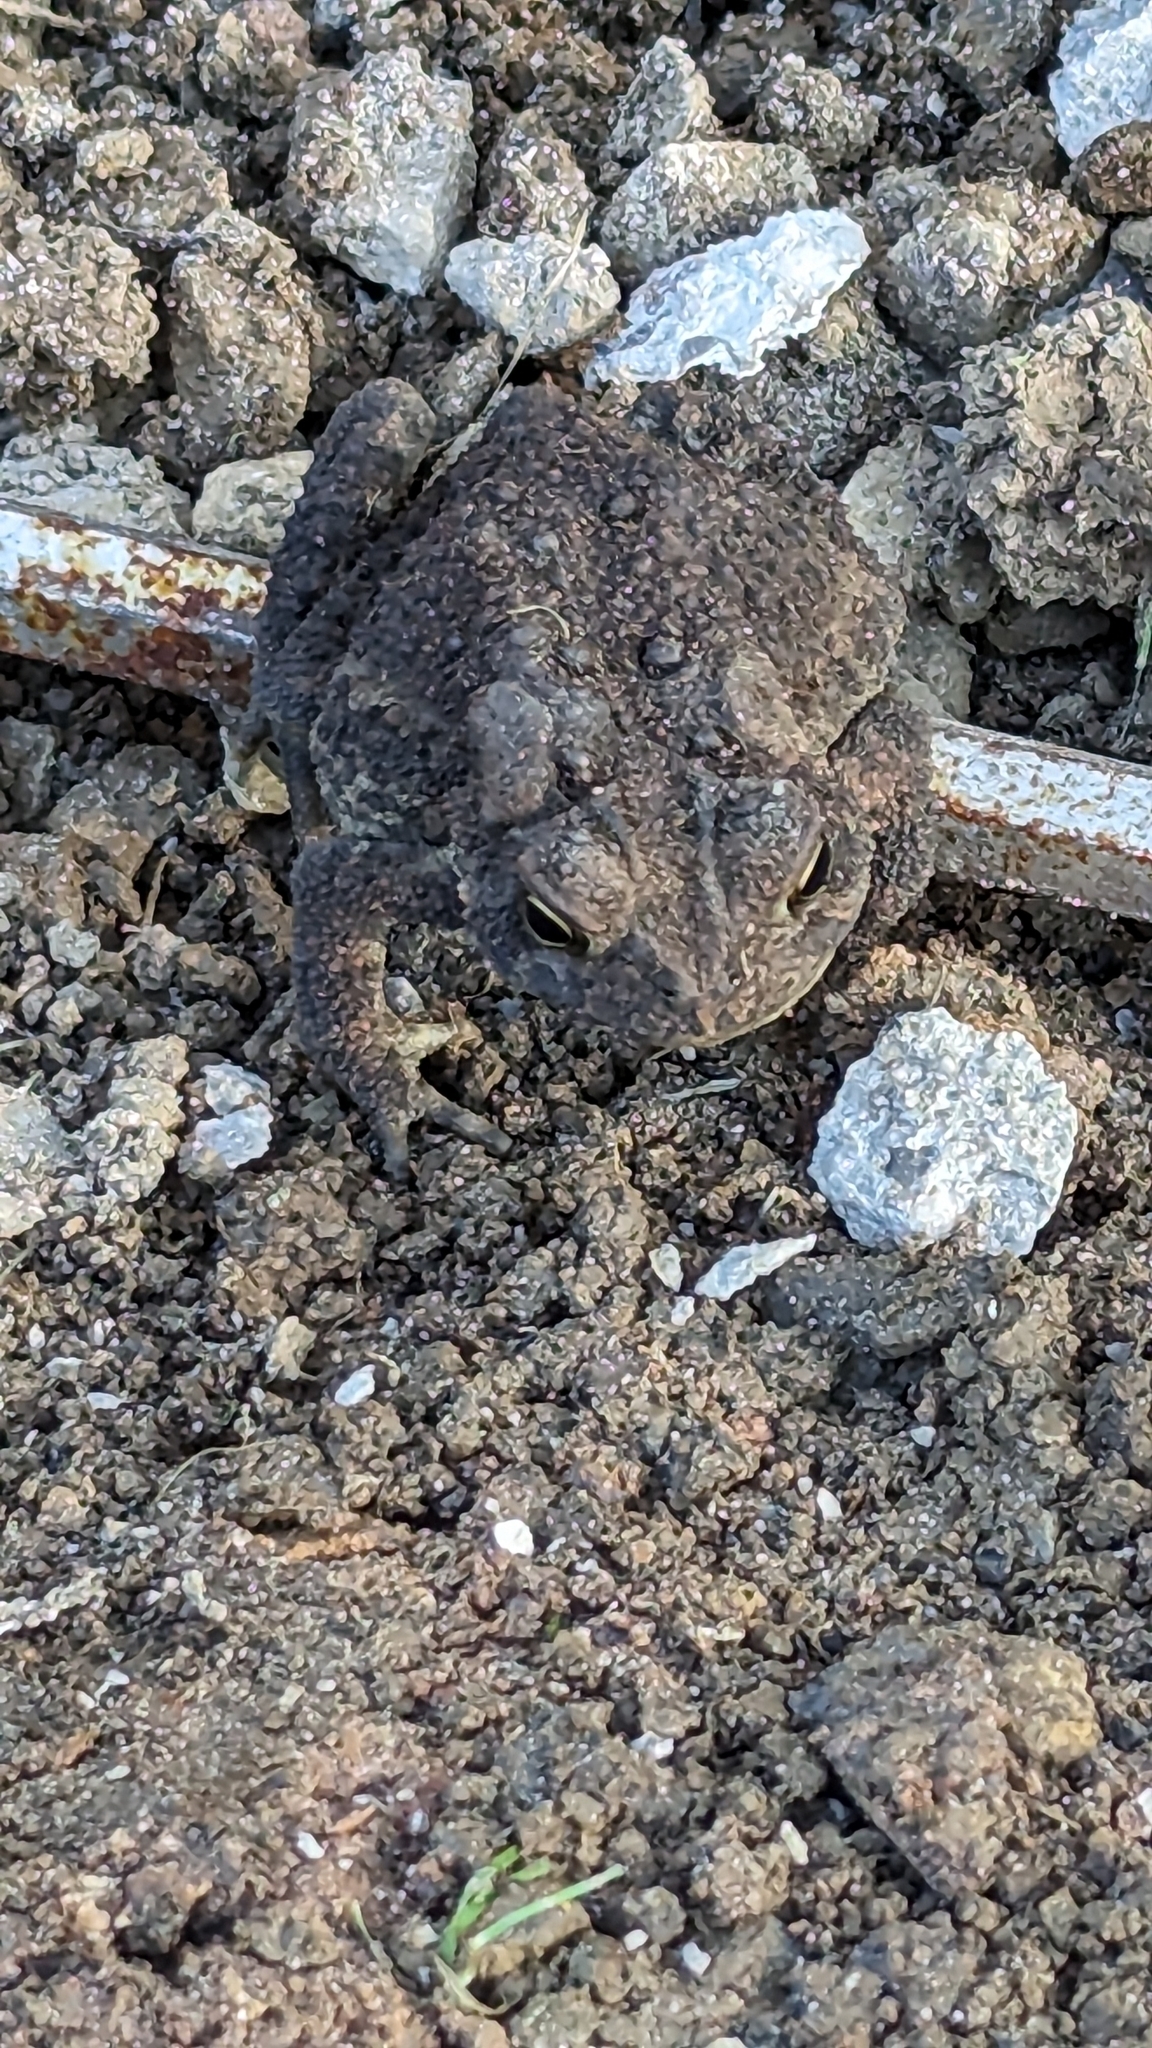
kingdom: Animalia
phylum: Chordata
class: Amphibia
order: Anura
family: Bufonidae
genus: Anaxyrus
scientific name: Anaxyrus americanus
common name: American toad
